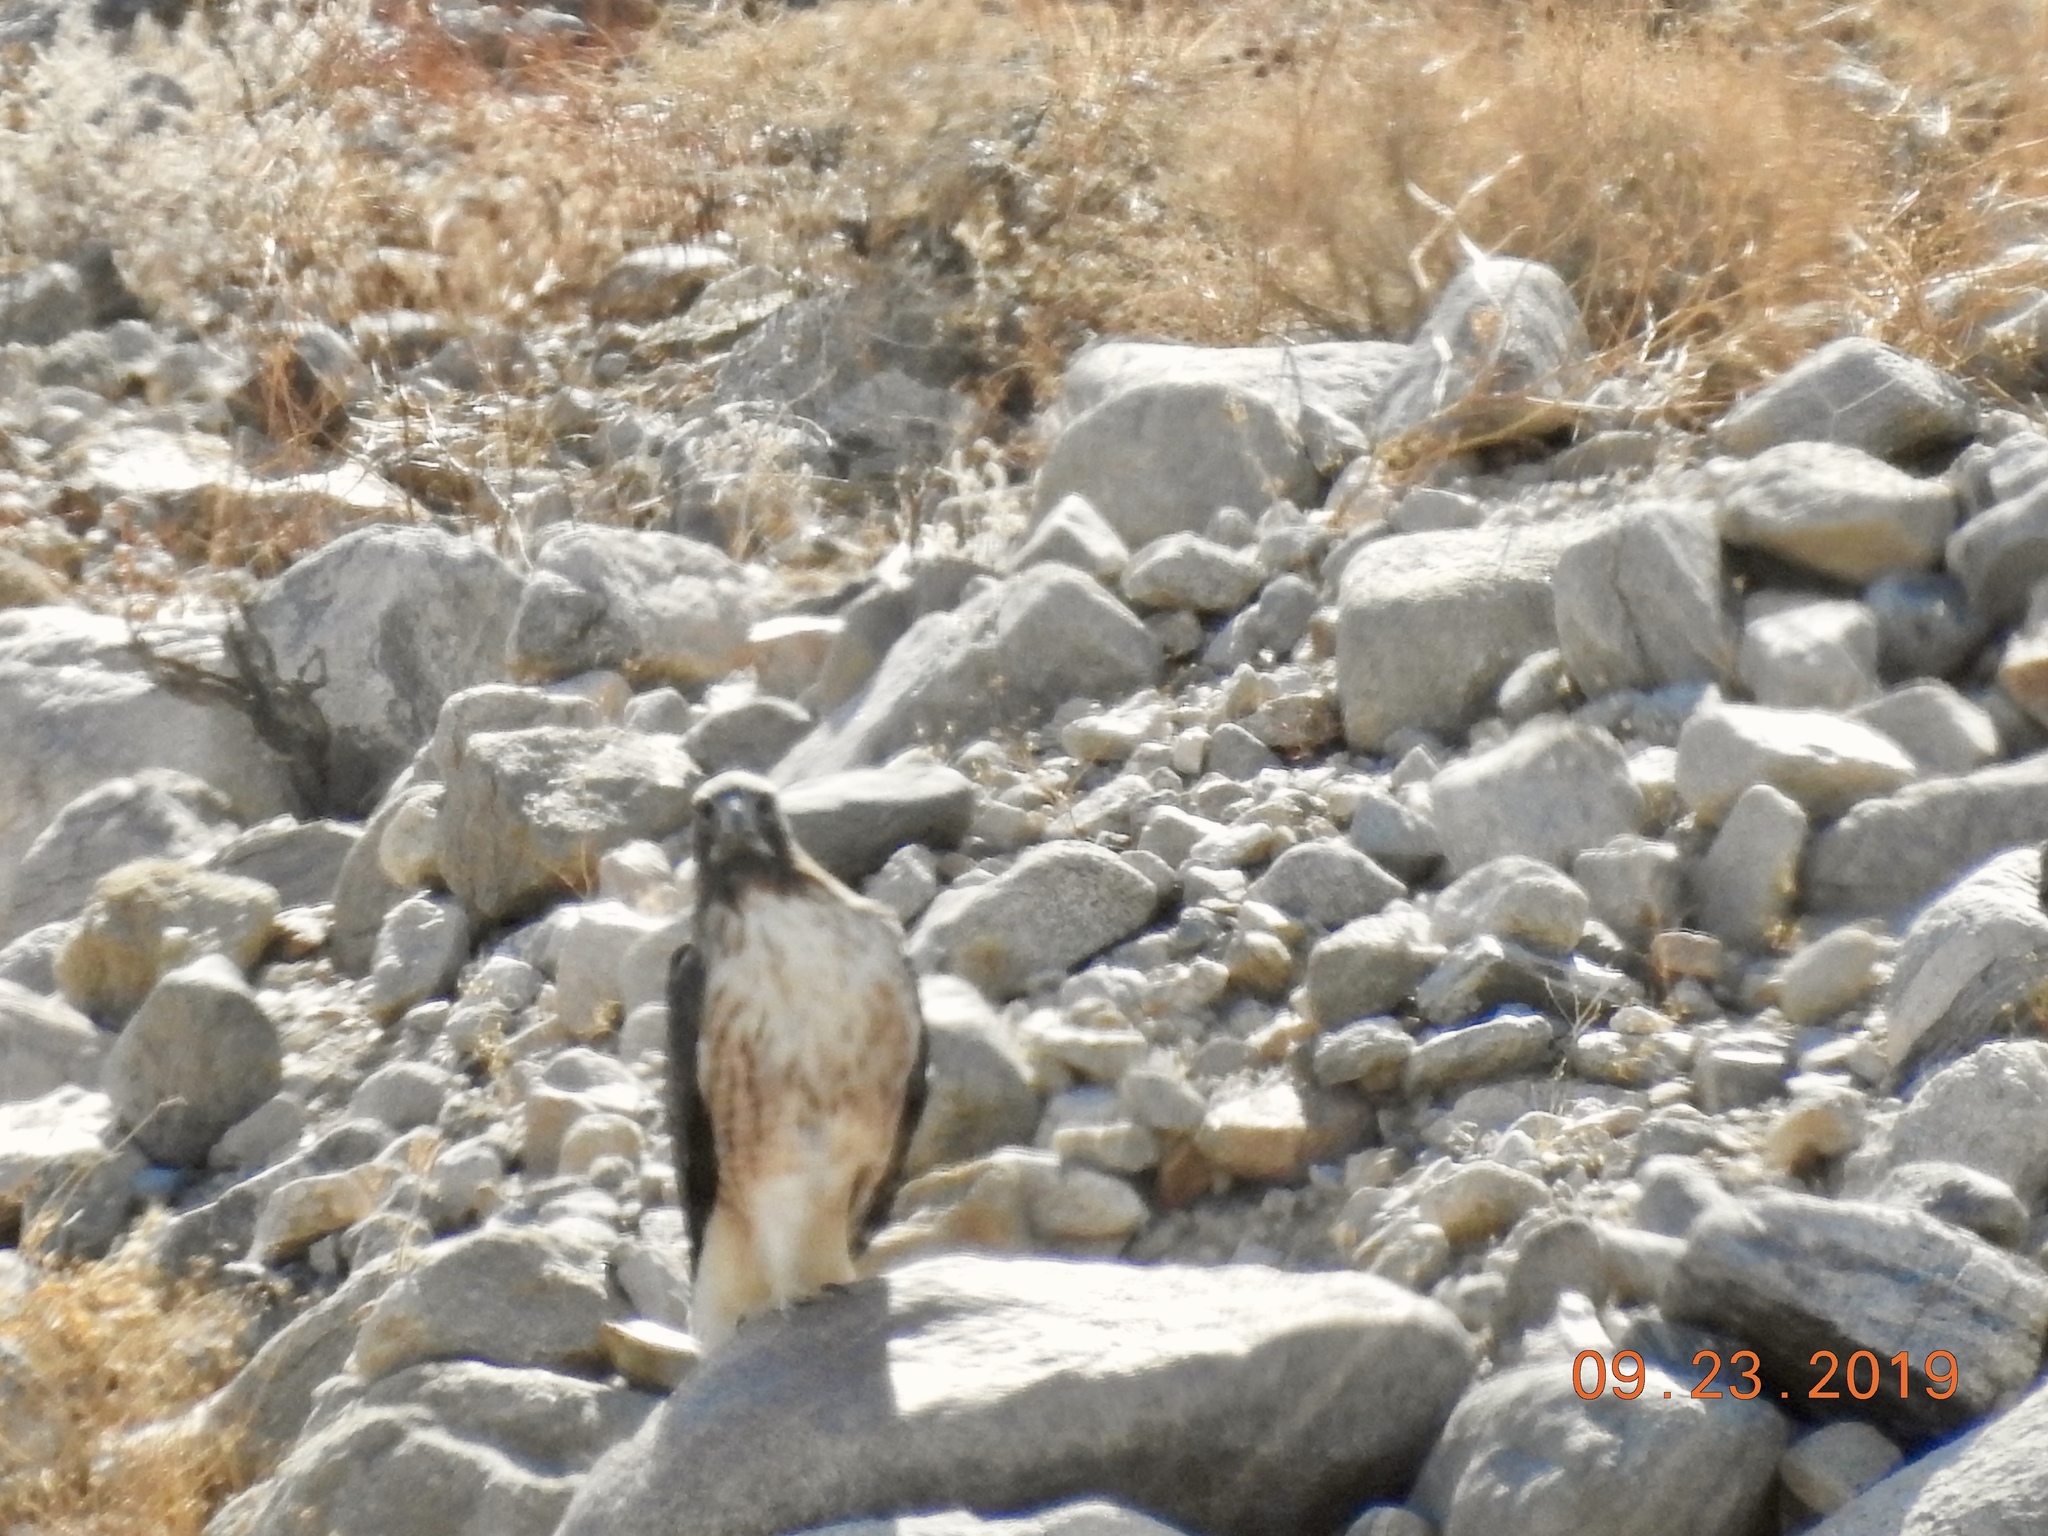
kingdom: Animalia
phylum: Chordata
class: Aves
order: Accipitriformes
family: Accipitridae
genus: Buteo
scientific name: Buteo jamaicensis
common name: Red-tailed hawk
